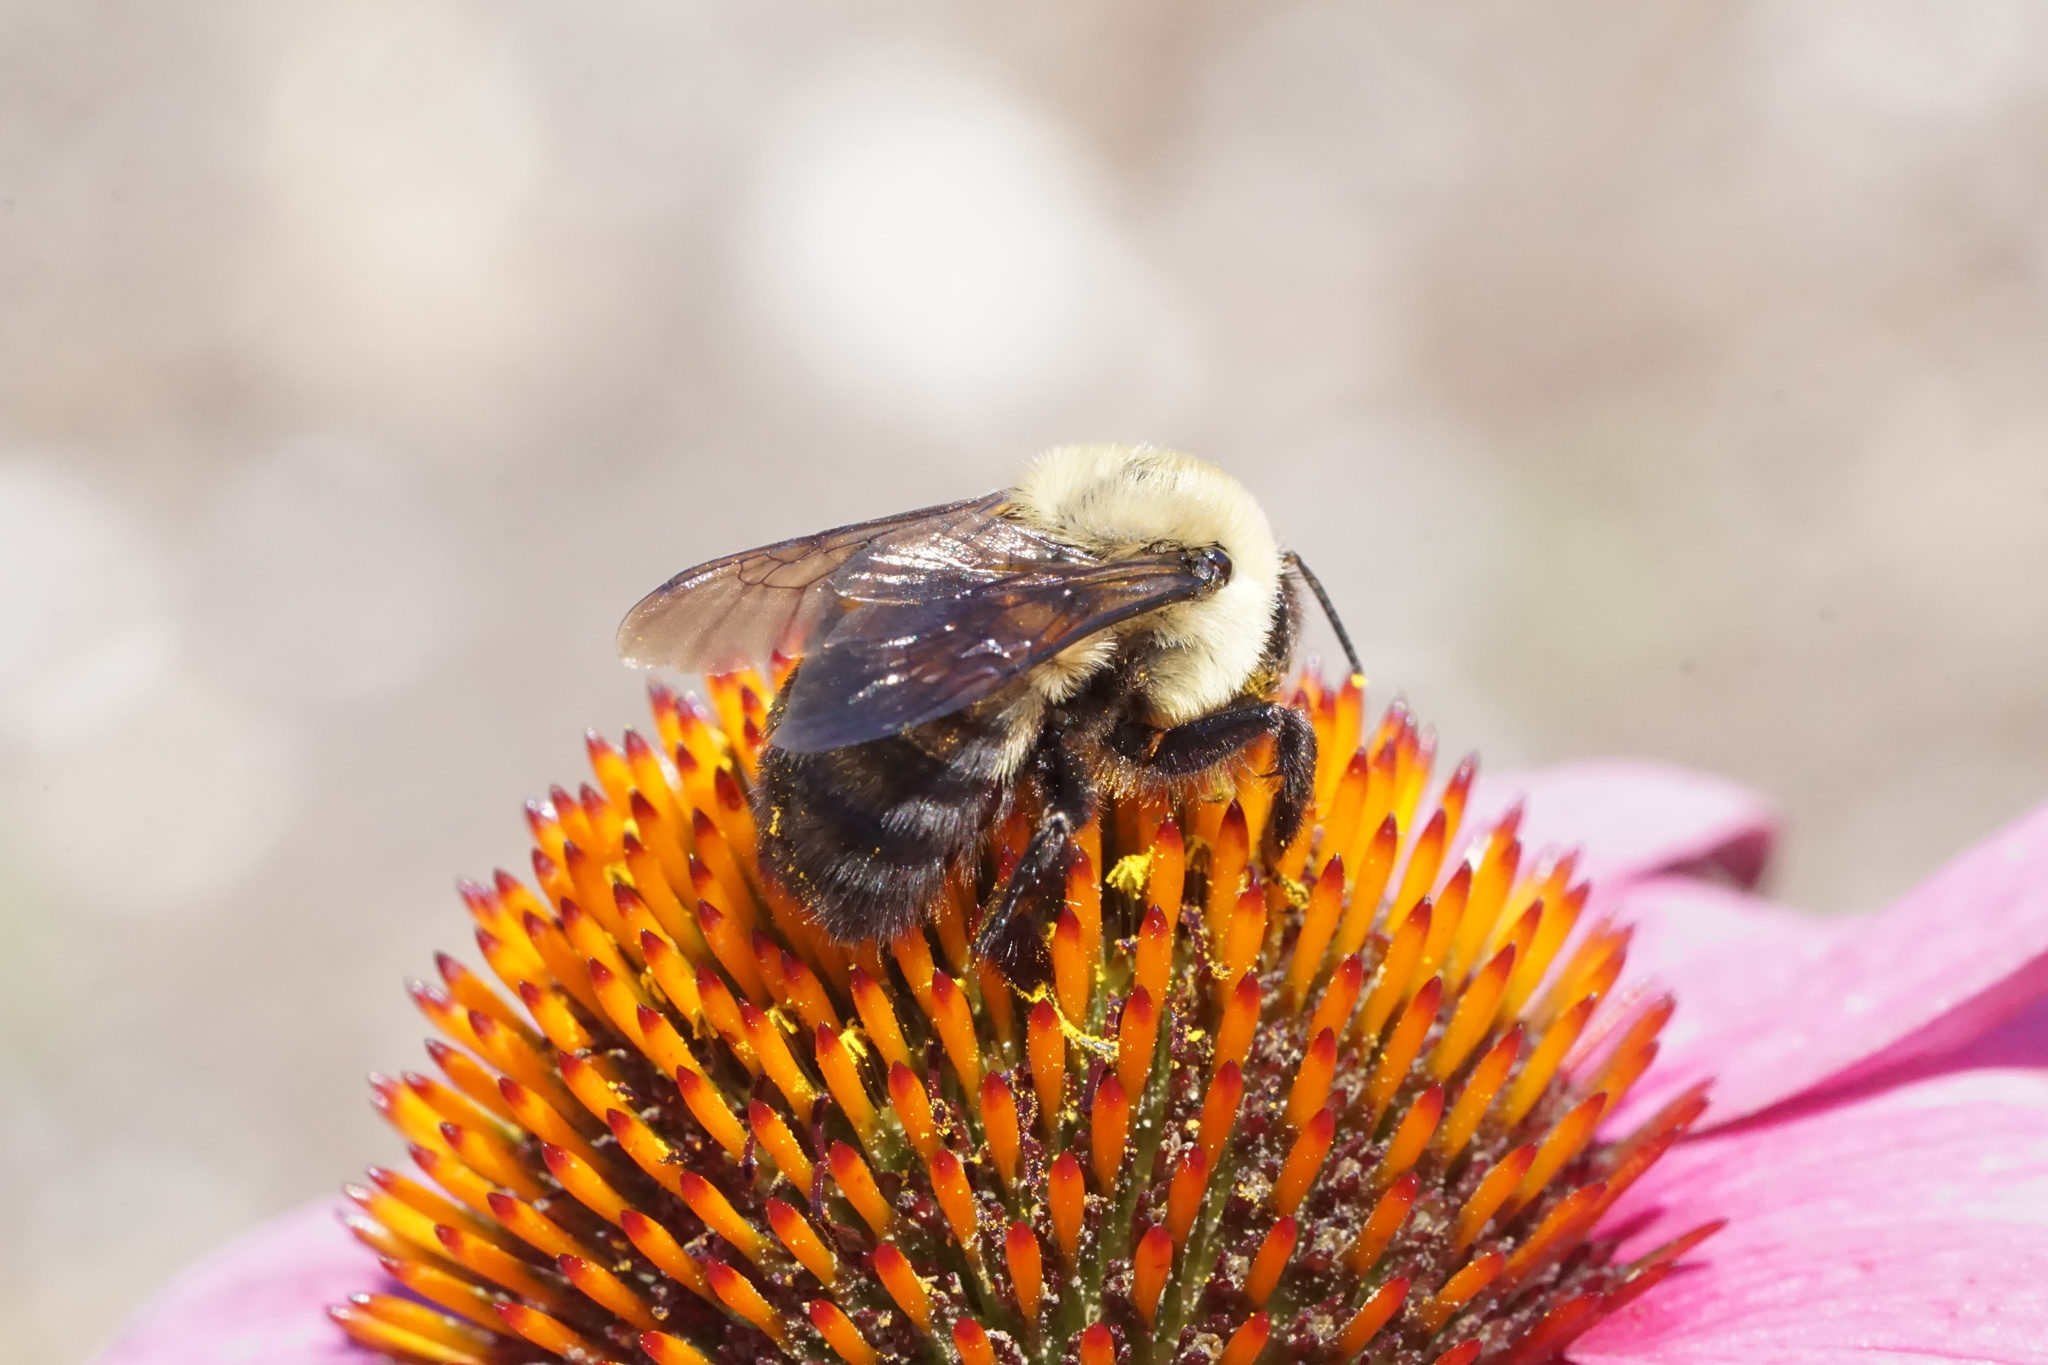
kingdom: Animalia
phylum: Arthropoda
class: Insecta
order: Hymenoptera
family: Apidae
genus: Bombus
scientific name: Bombus griseocollis
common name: Brown-belted bumble bee
